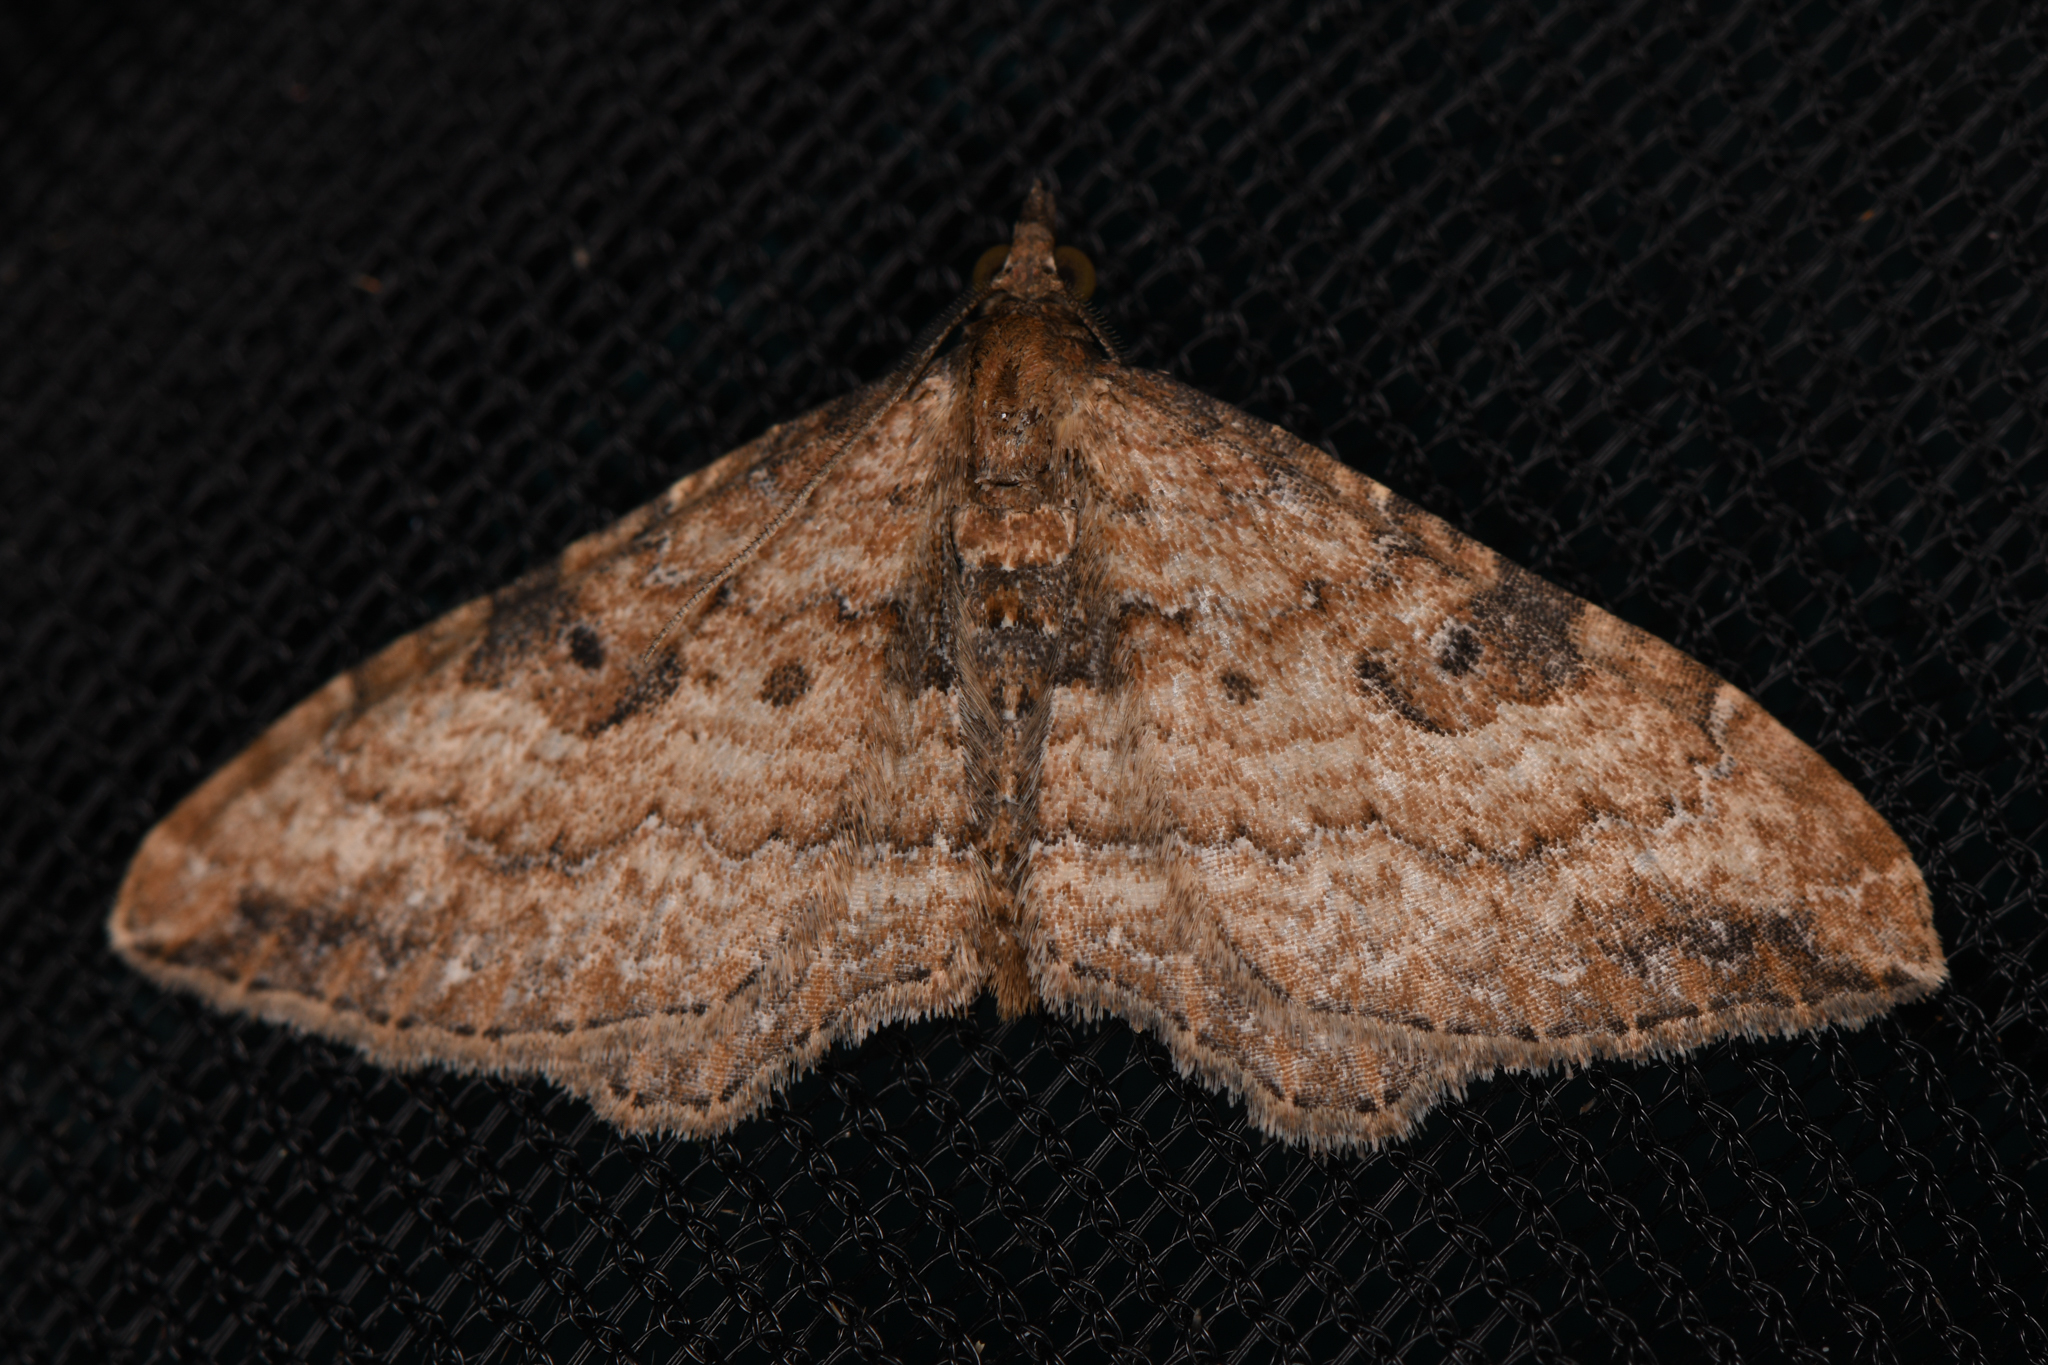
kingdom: Animalia
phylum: Arthropoda
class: Insecta
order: Lepidoptera
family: Geometridae
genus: Orthonama
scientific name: Orthonama obstipata
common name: The gem
